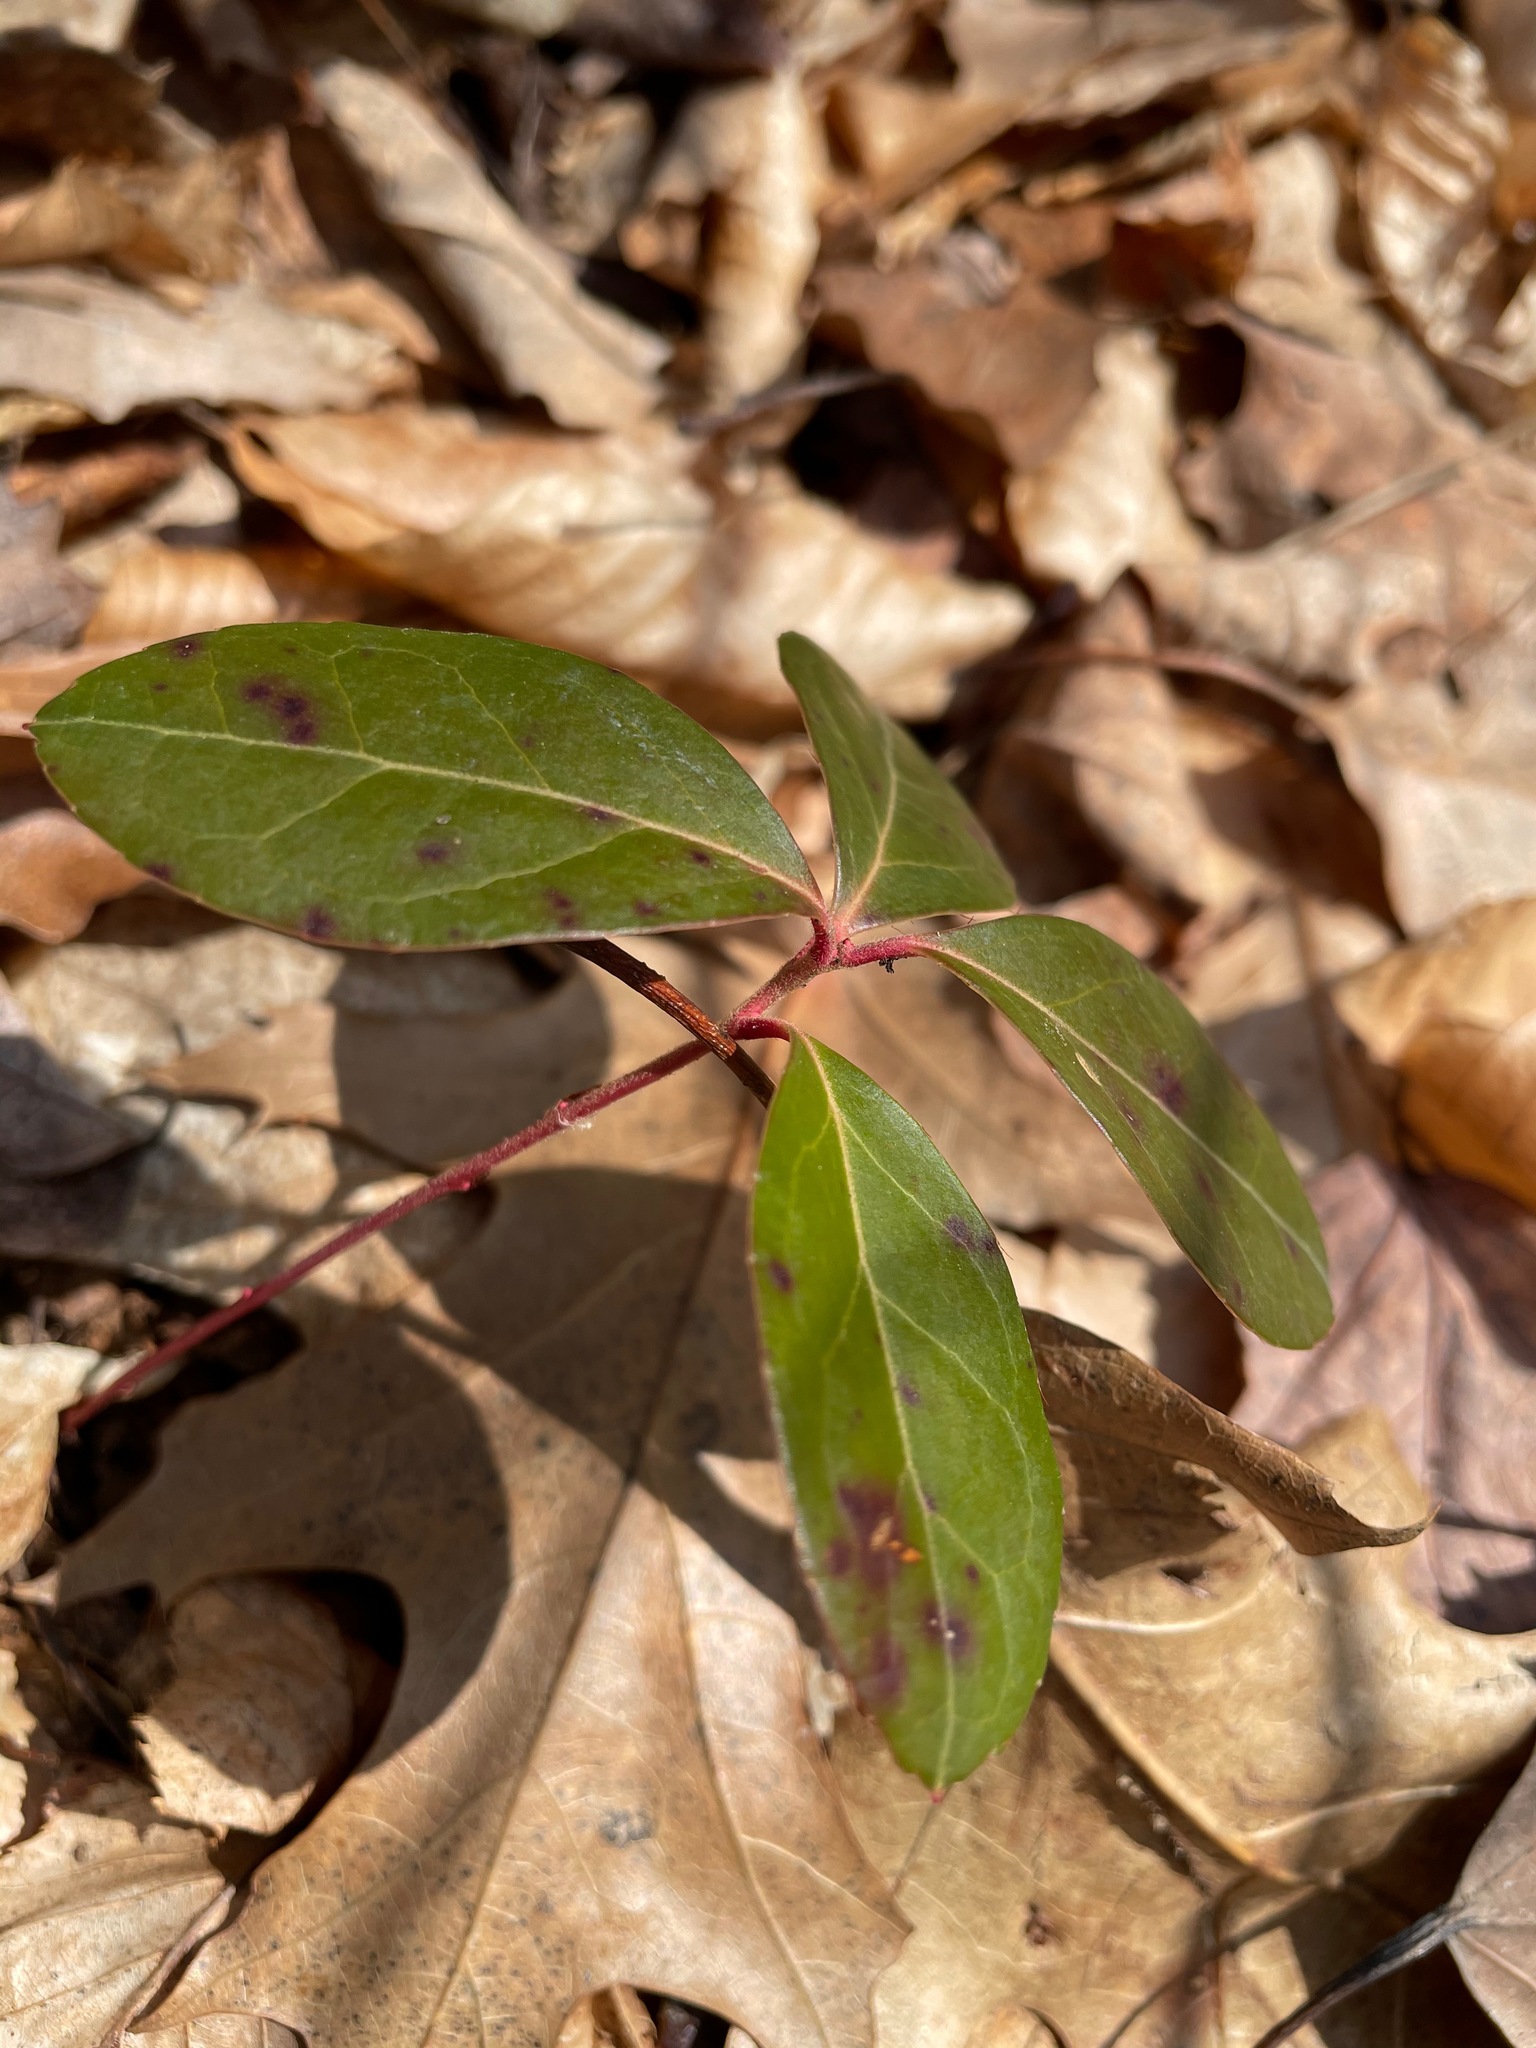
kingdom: Plantae
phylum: Tracheophyta
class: Magnoliopsida
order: Ericales
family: Ericaceae
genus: Gaultheria
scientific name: Gaultheria procumbens
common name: Checkerberry
